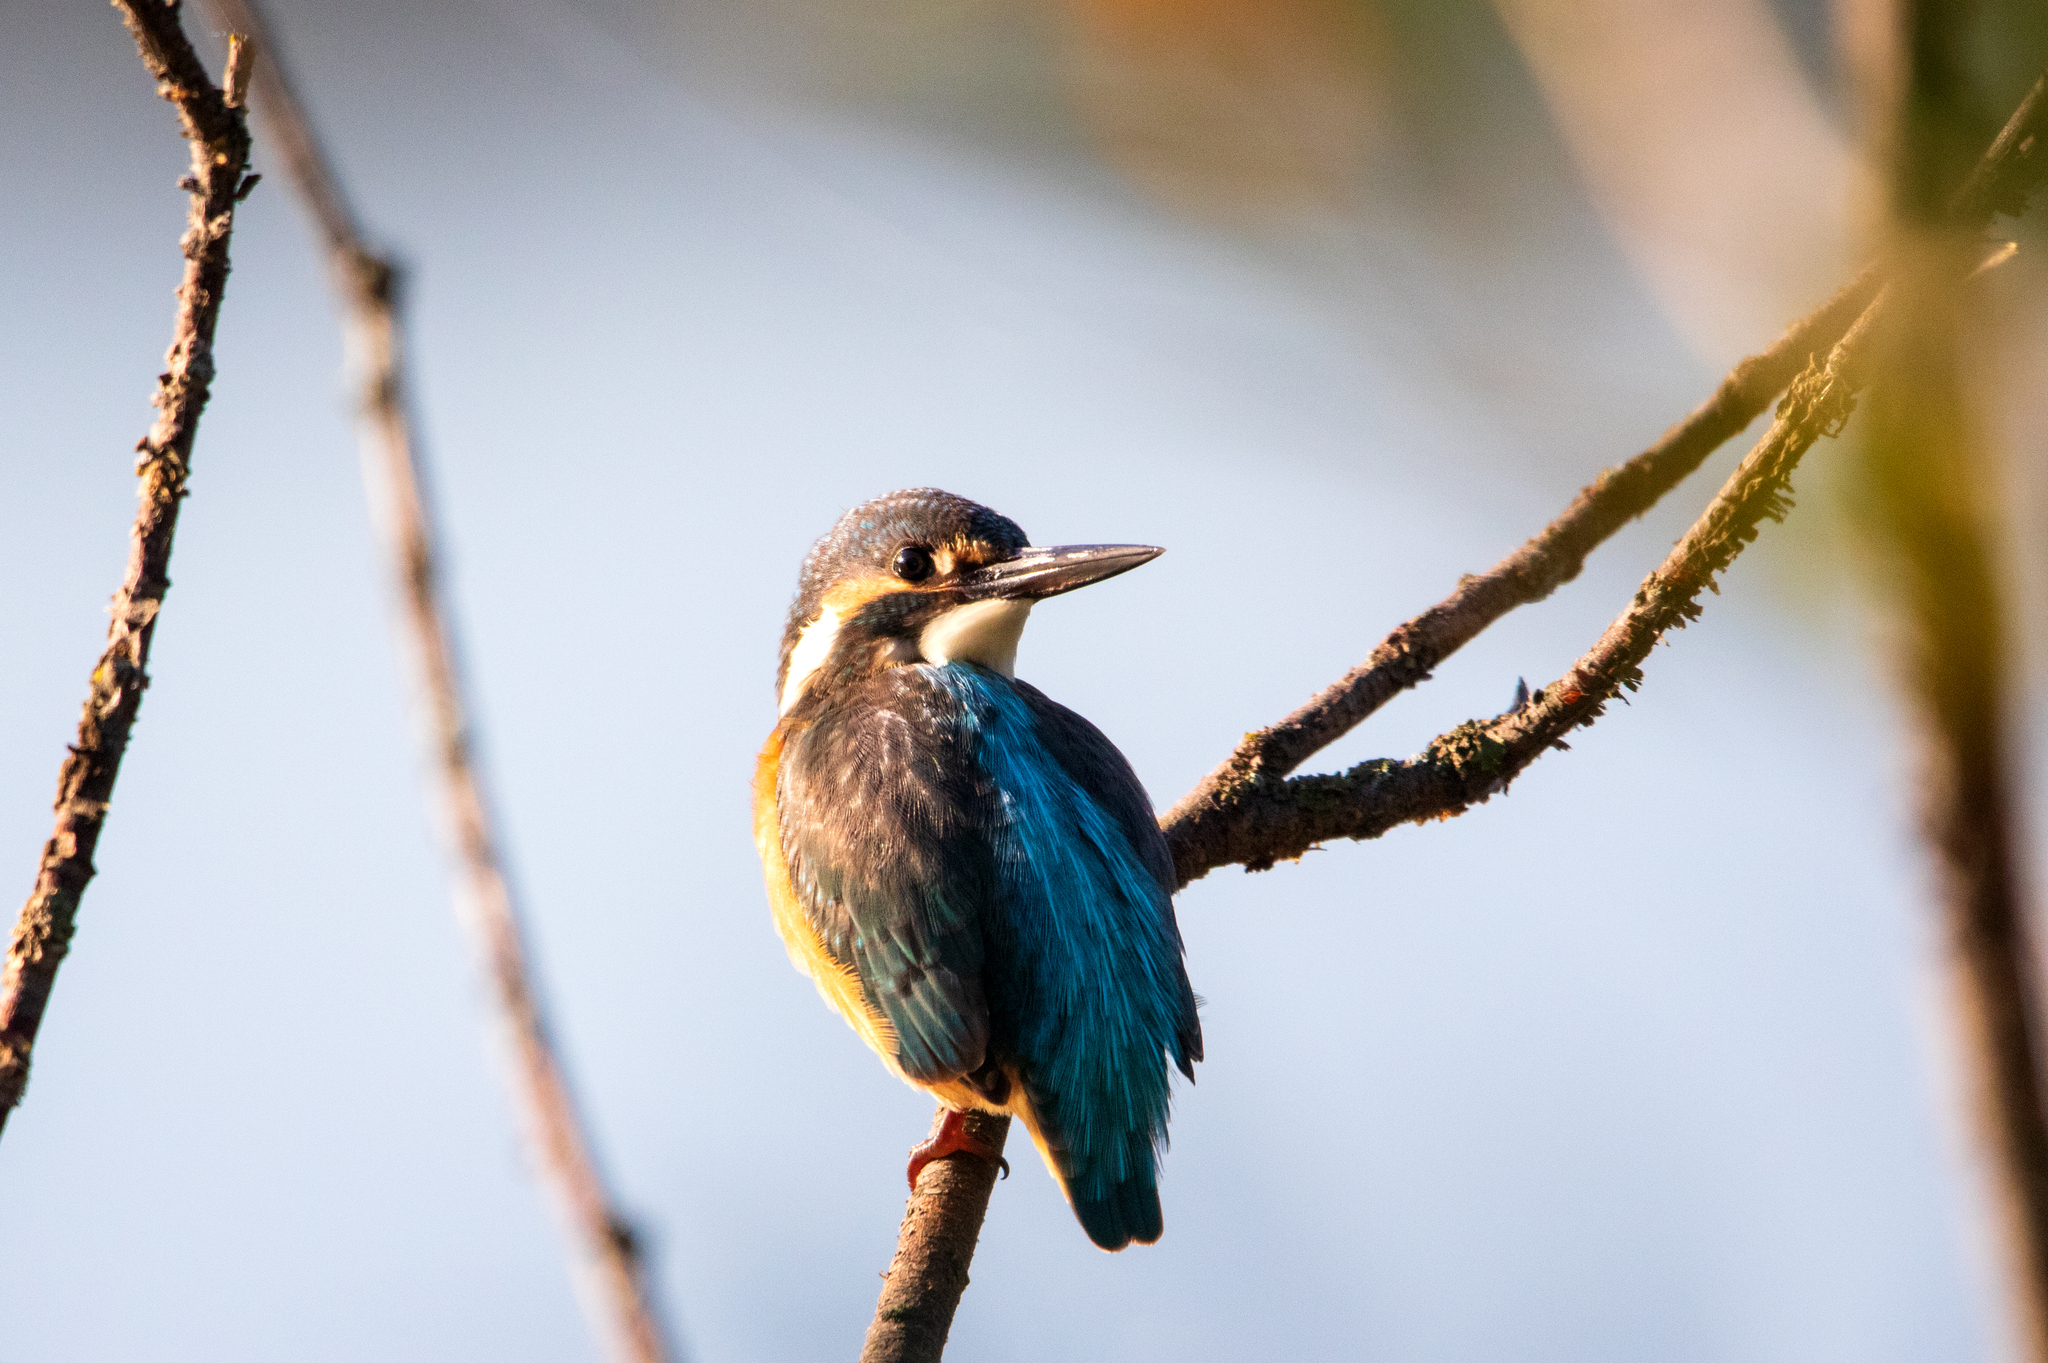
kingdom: Animalia
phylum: Chordata
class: Aves
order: Coraciiformes
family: Alcedinidae
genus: Alcedo
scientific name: Alcedo atthis
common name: Common kingfisher
